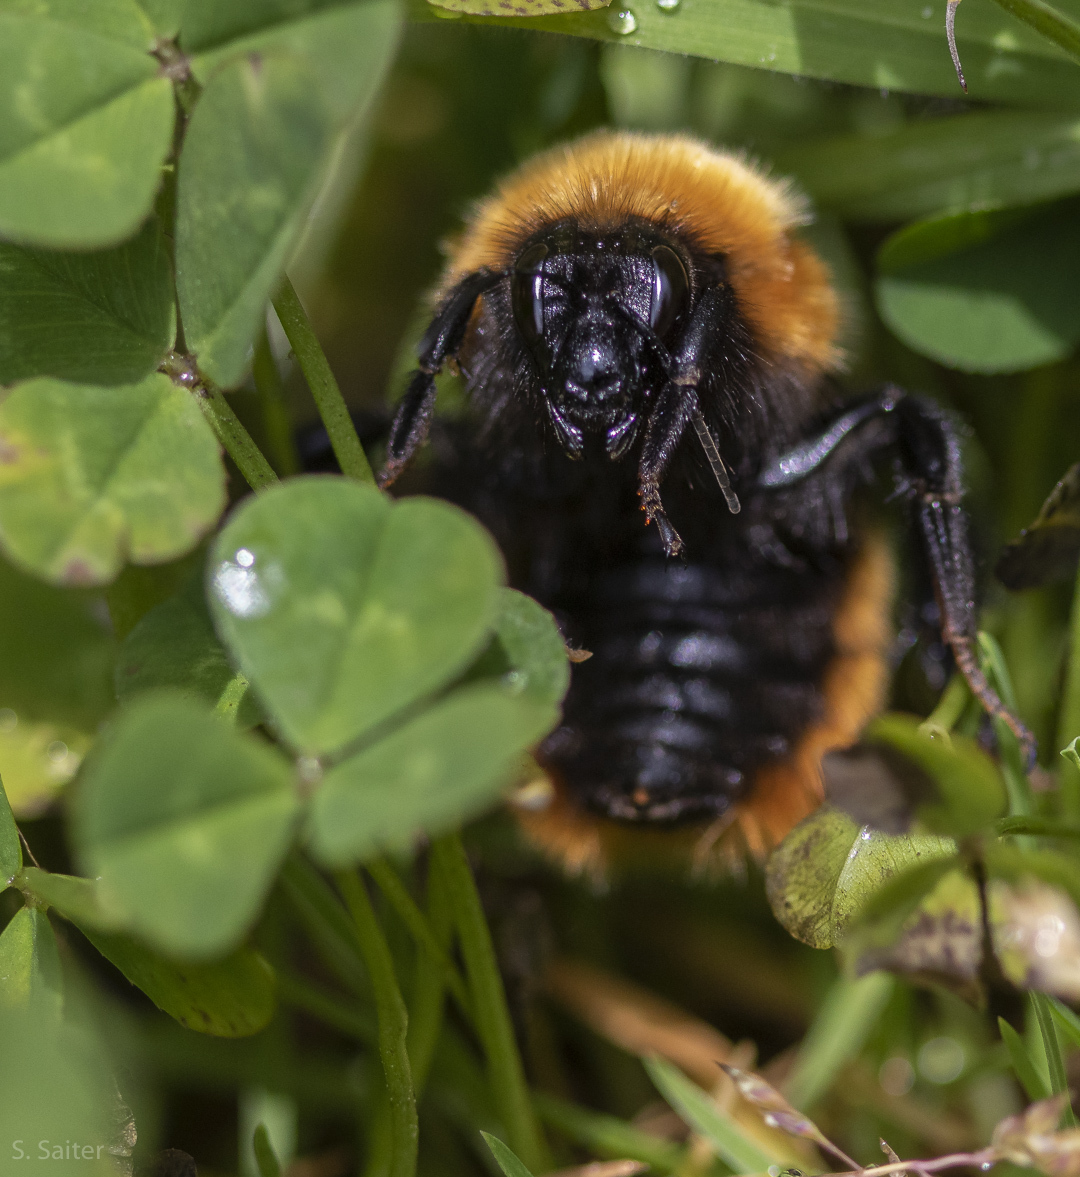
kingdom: Animalia
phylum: Arthropoda
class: Insecta
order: Hymenoptera
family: Apidae
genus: Bombus
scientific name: Bombus dahlbomii
